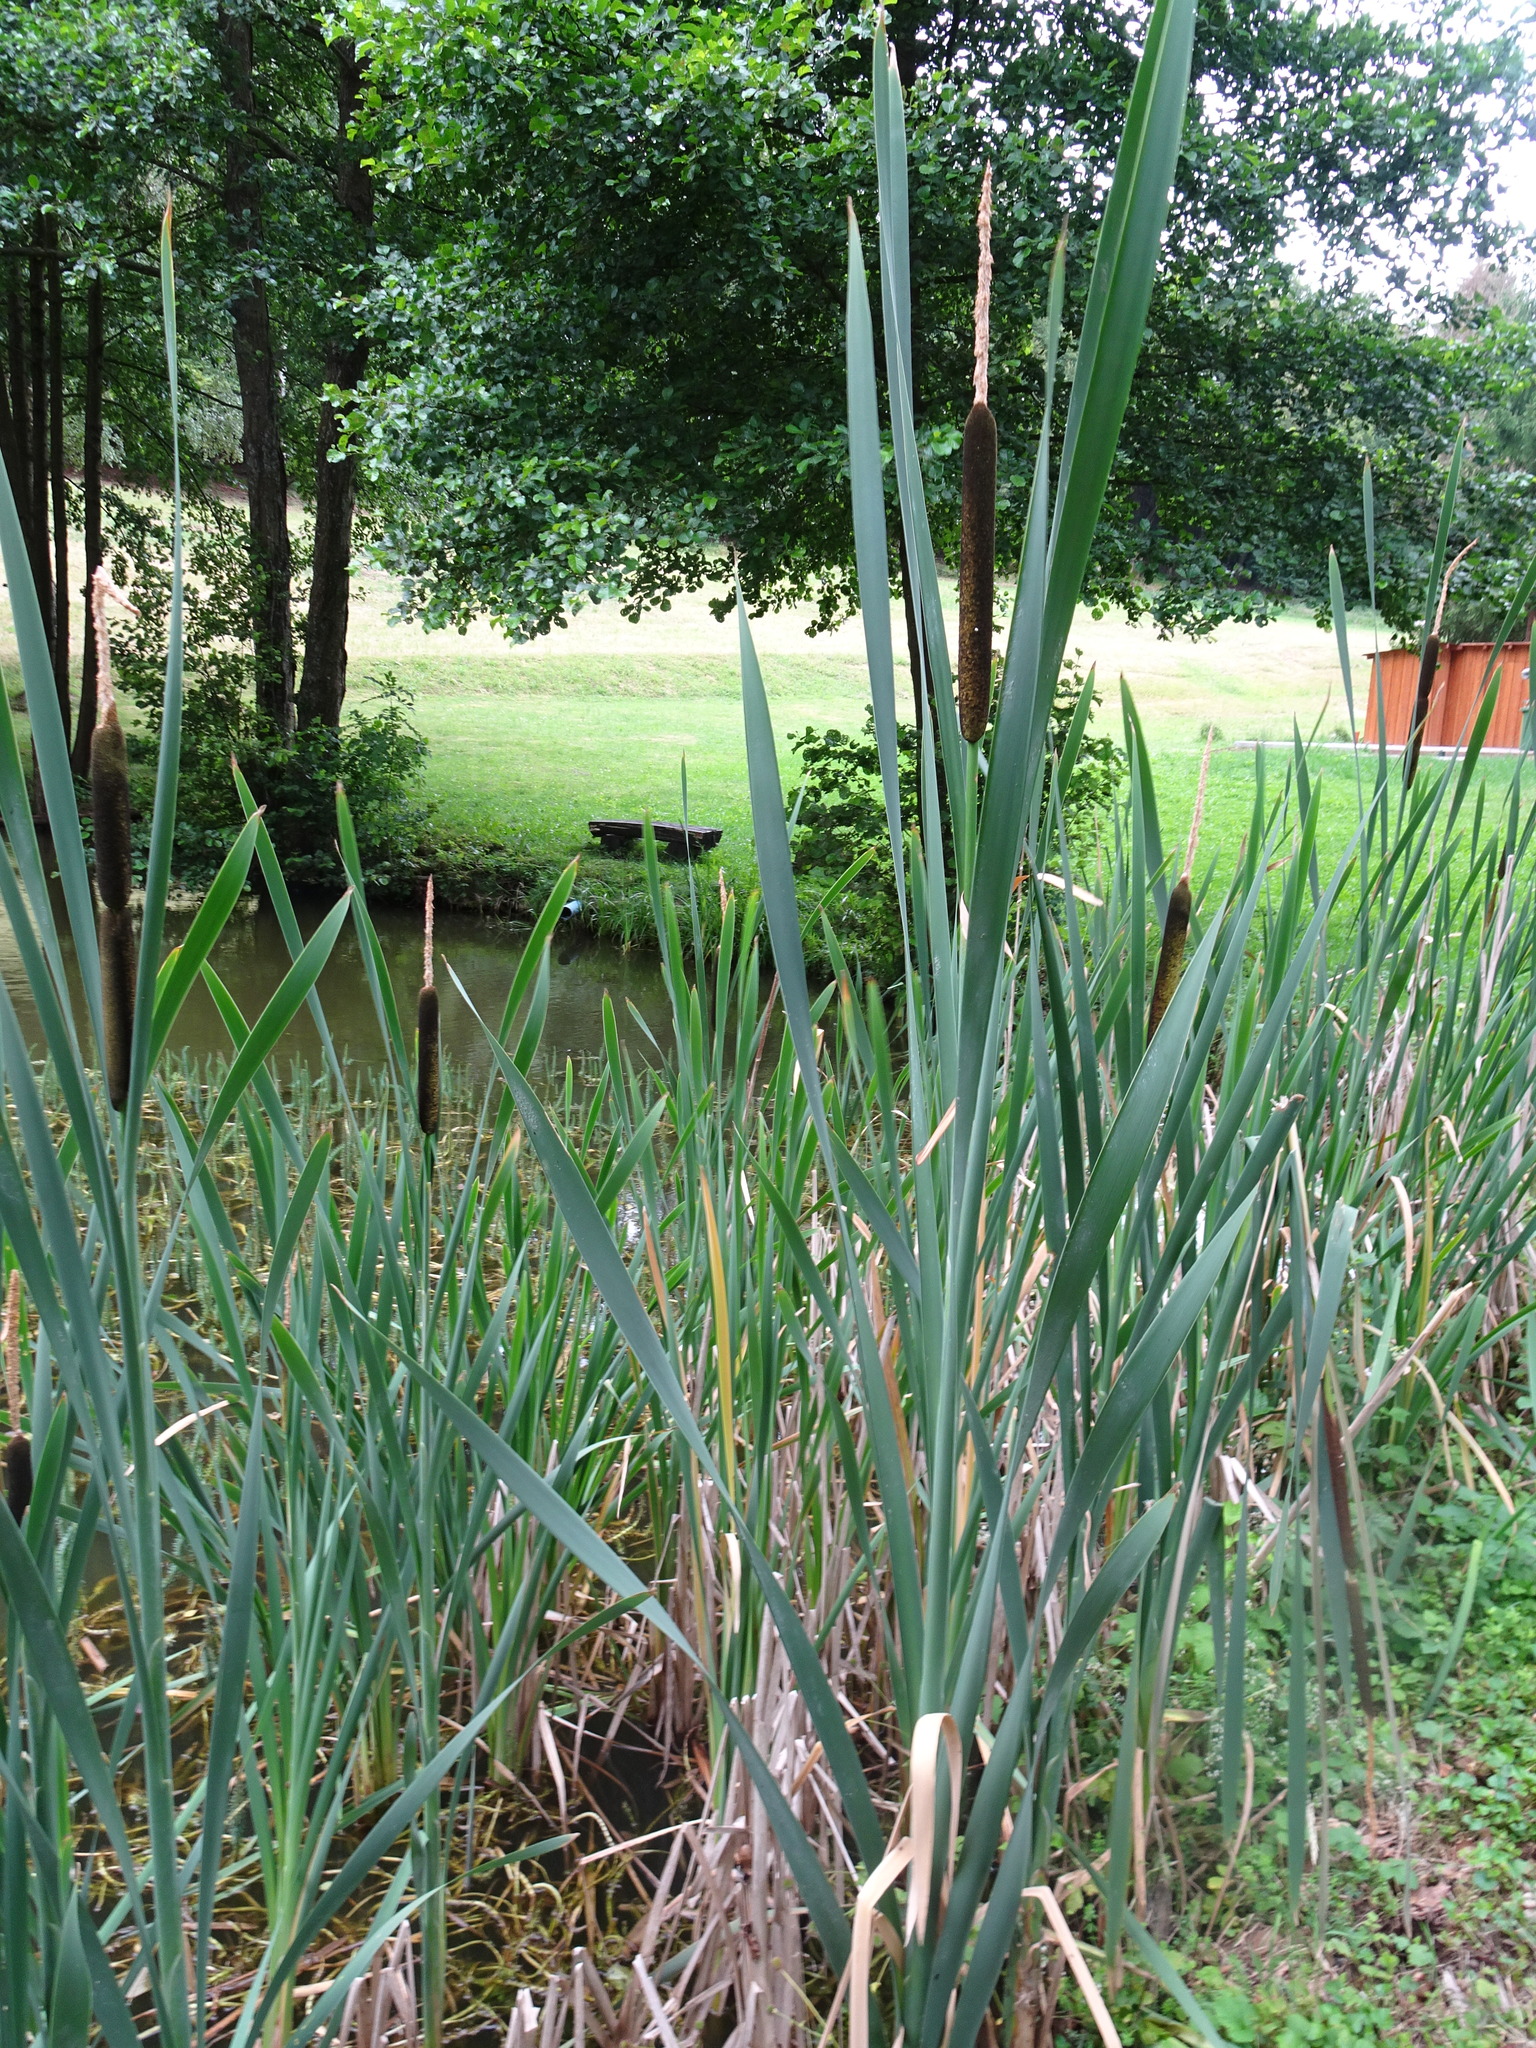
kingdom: Plantae
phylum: Tracheophyta
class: Liliopsida
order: Poales
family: Typhaceae
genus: Typha
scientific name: Typha latifolia
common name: Broadleaf cattail
